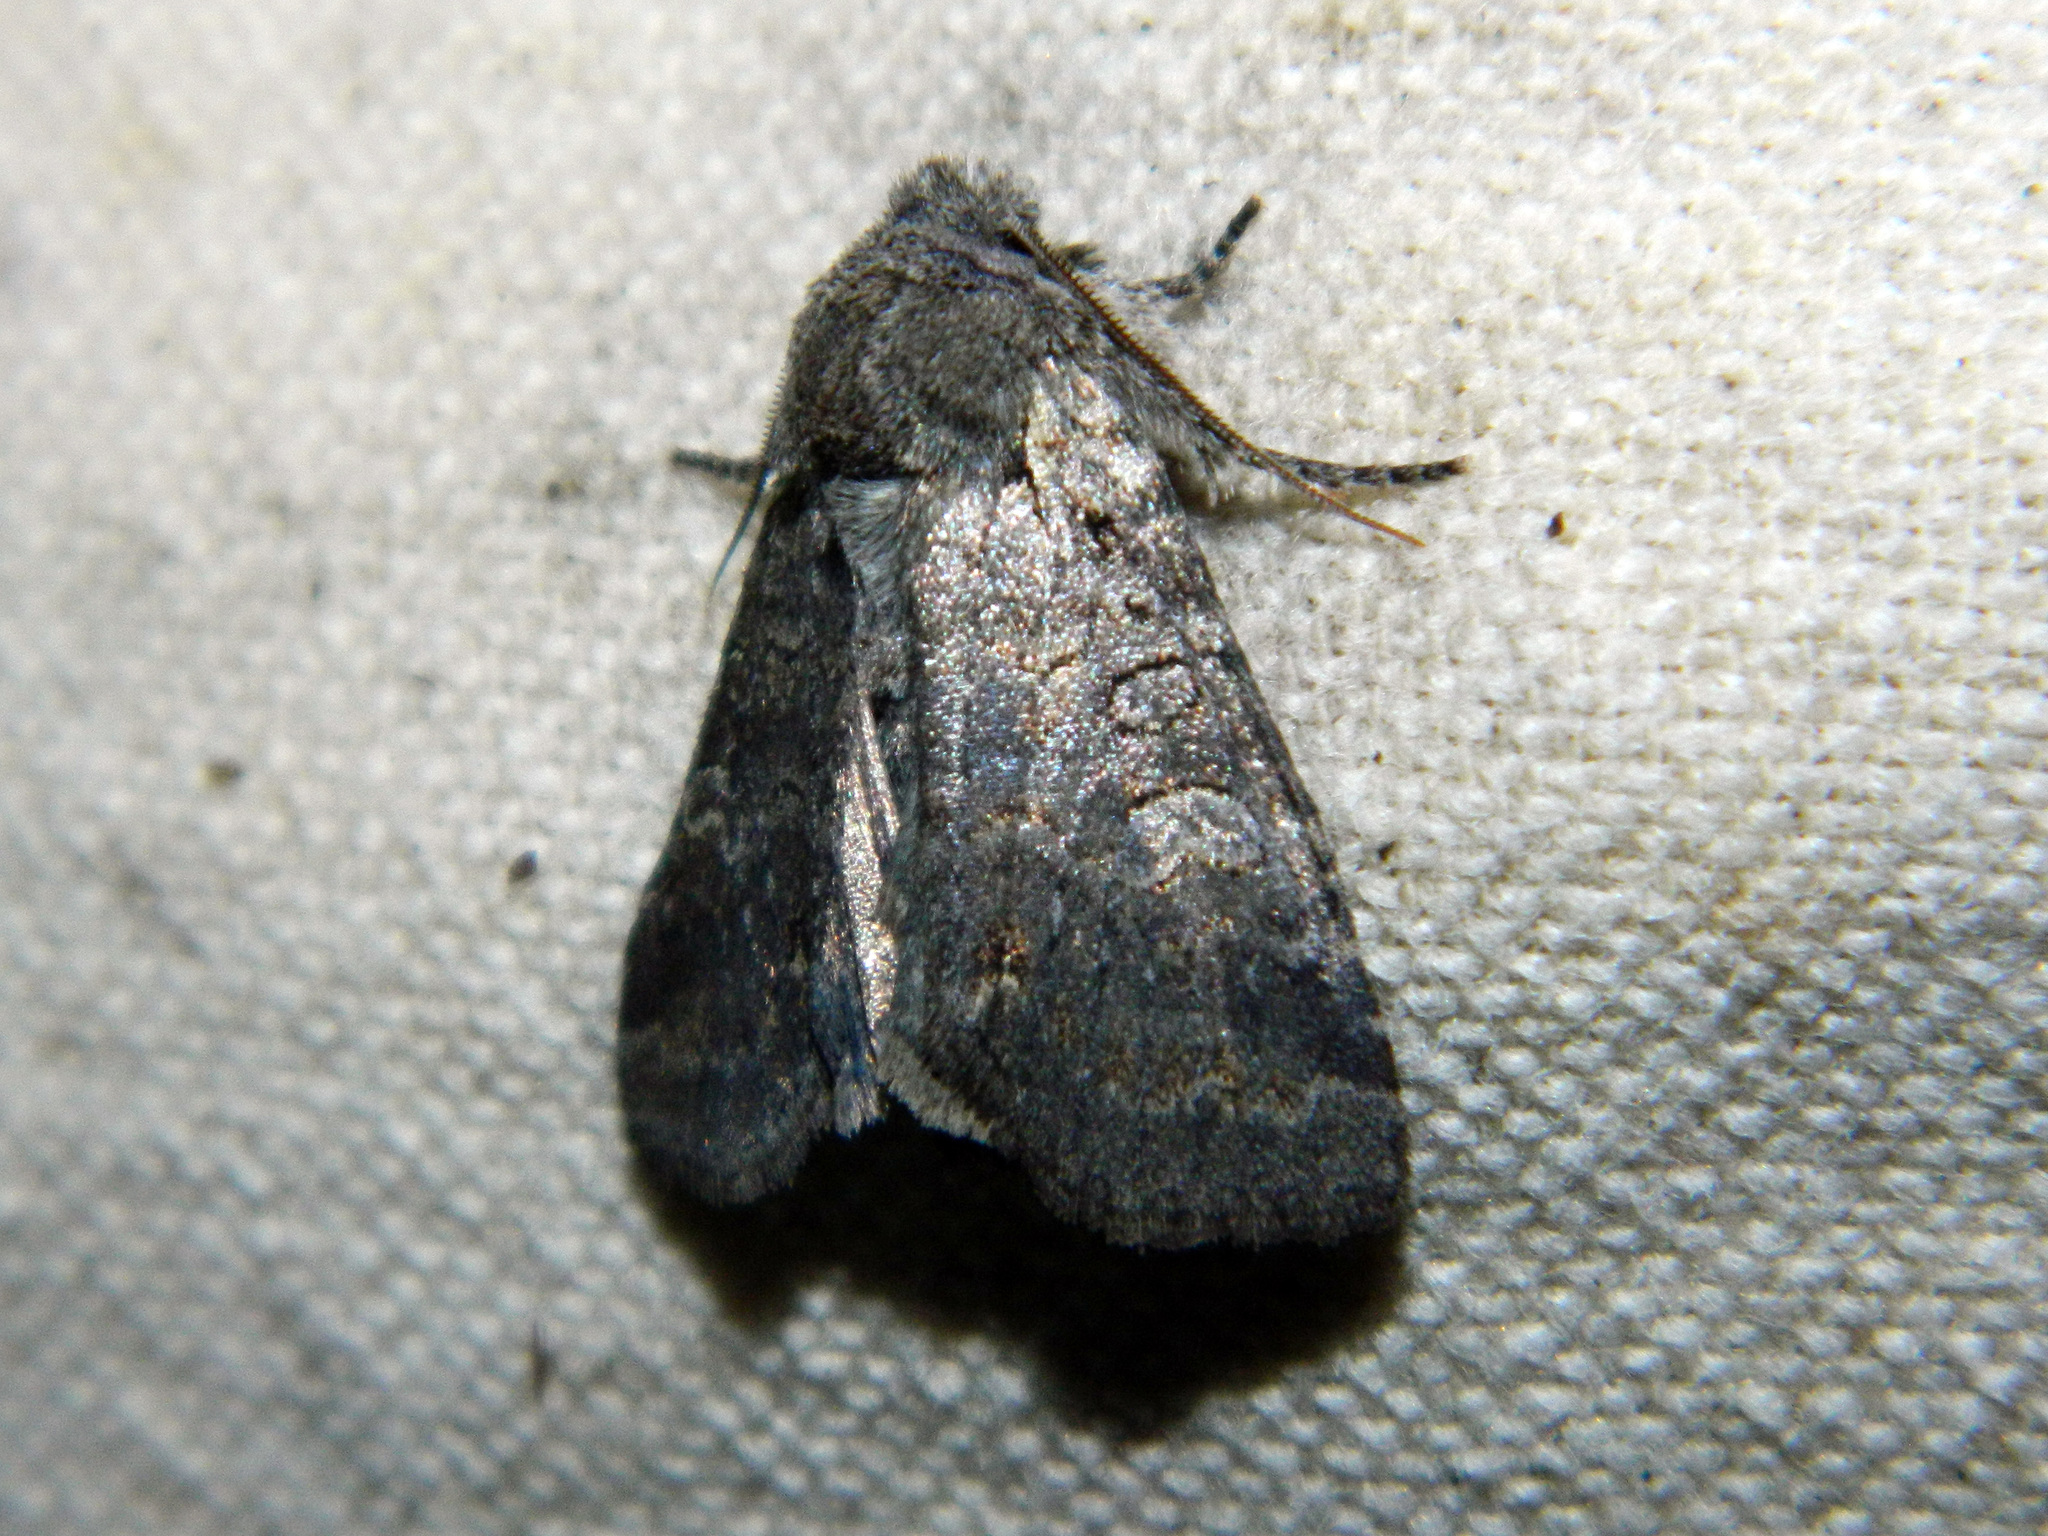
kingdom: Animalia
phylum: Arthropoda
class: Insecta
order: Lepidoptera
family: Noctuidae
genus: Brachylomia
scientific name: Brachylomia algens
